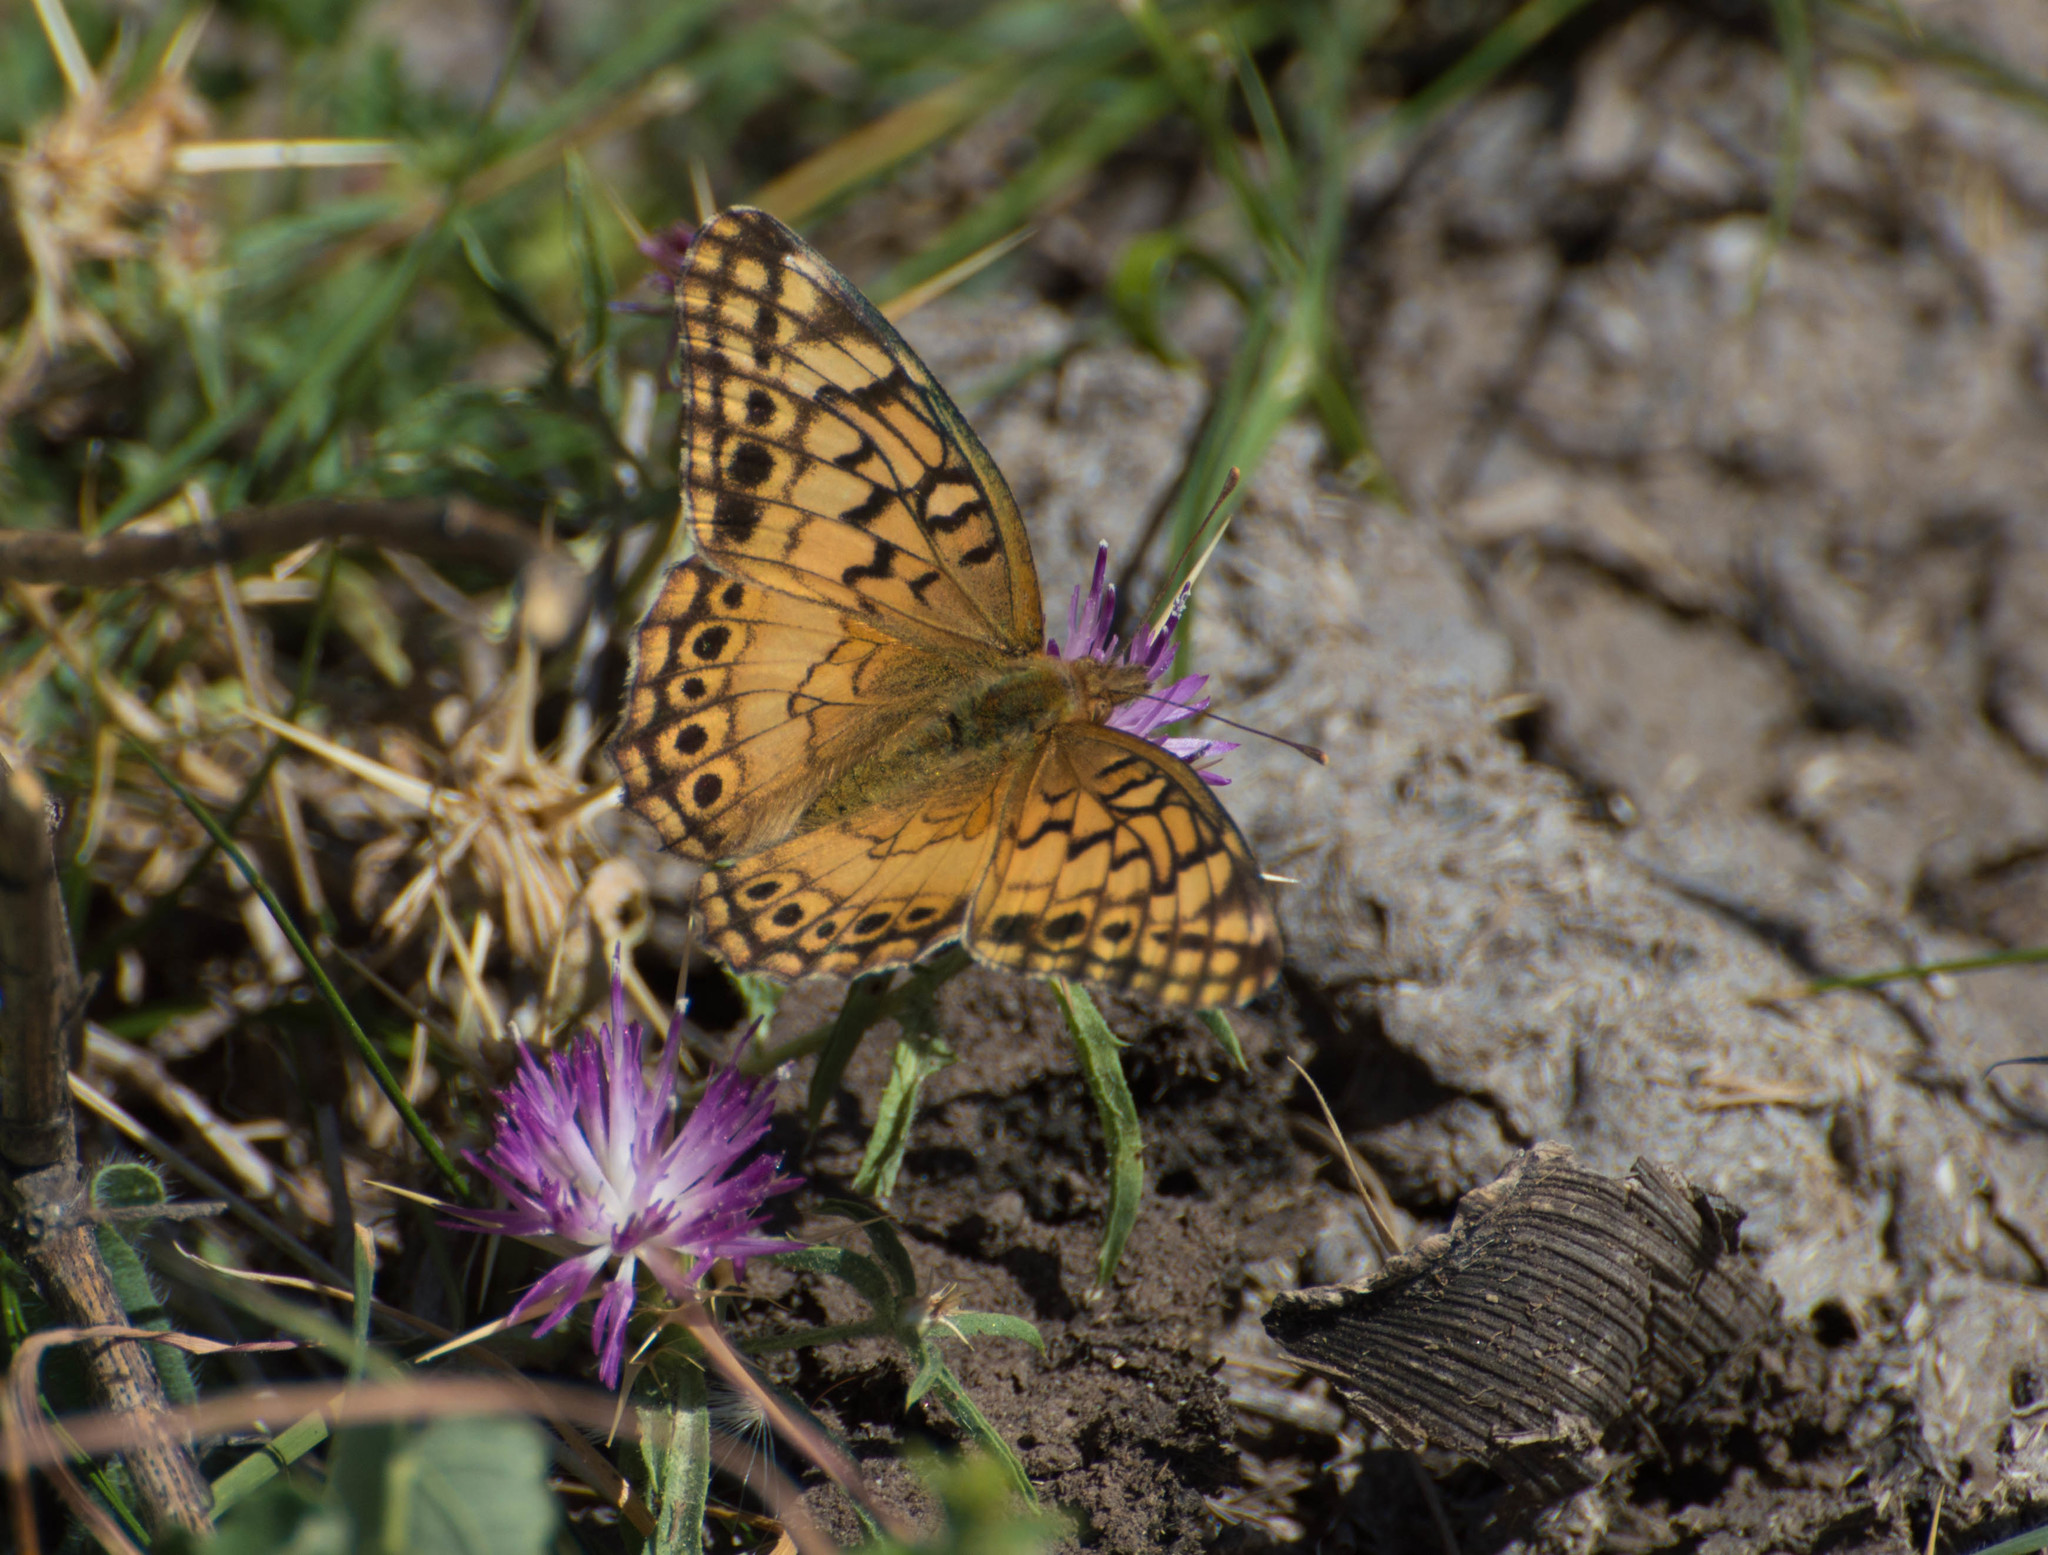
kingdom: Animalia
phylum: Arthropoda
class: Insecta
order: Lepidoptera
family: Nymphalidae
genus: Euptoieta
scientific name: Euptoieta hortensia
